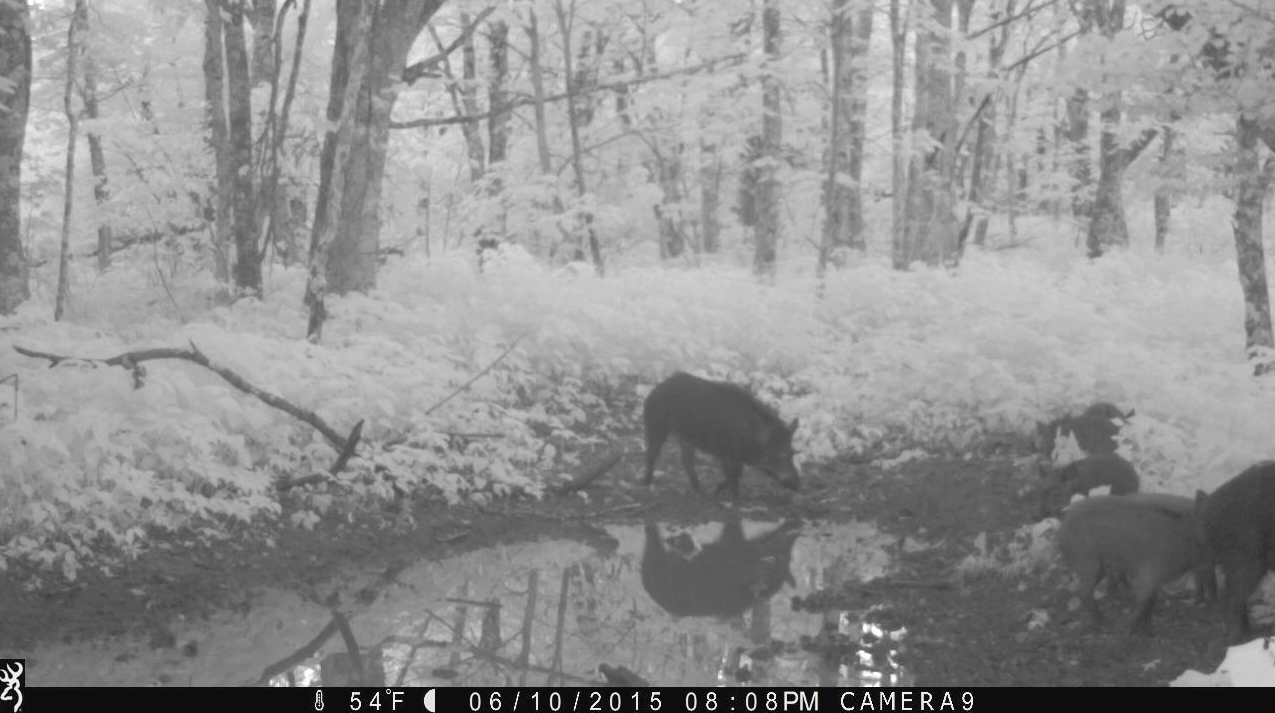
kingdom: Animalia
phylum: Chordata
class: Mammalia
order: Artiodactyla
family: Suidae
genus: Sus
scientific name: Sus scrofa
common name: Wild boar
